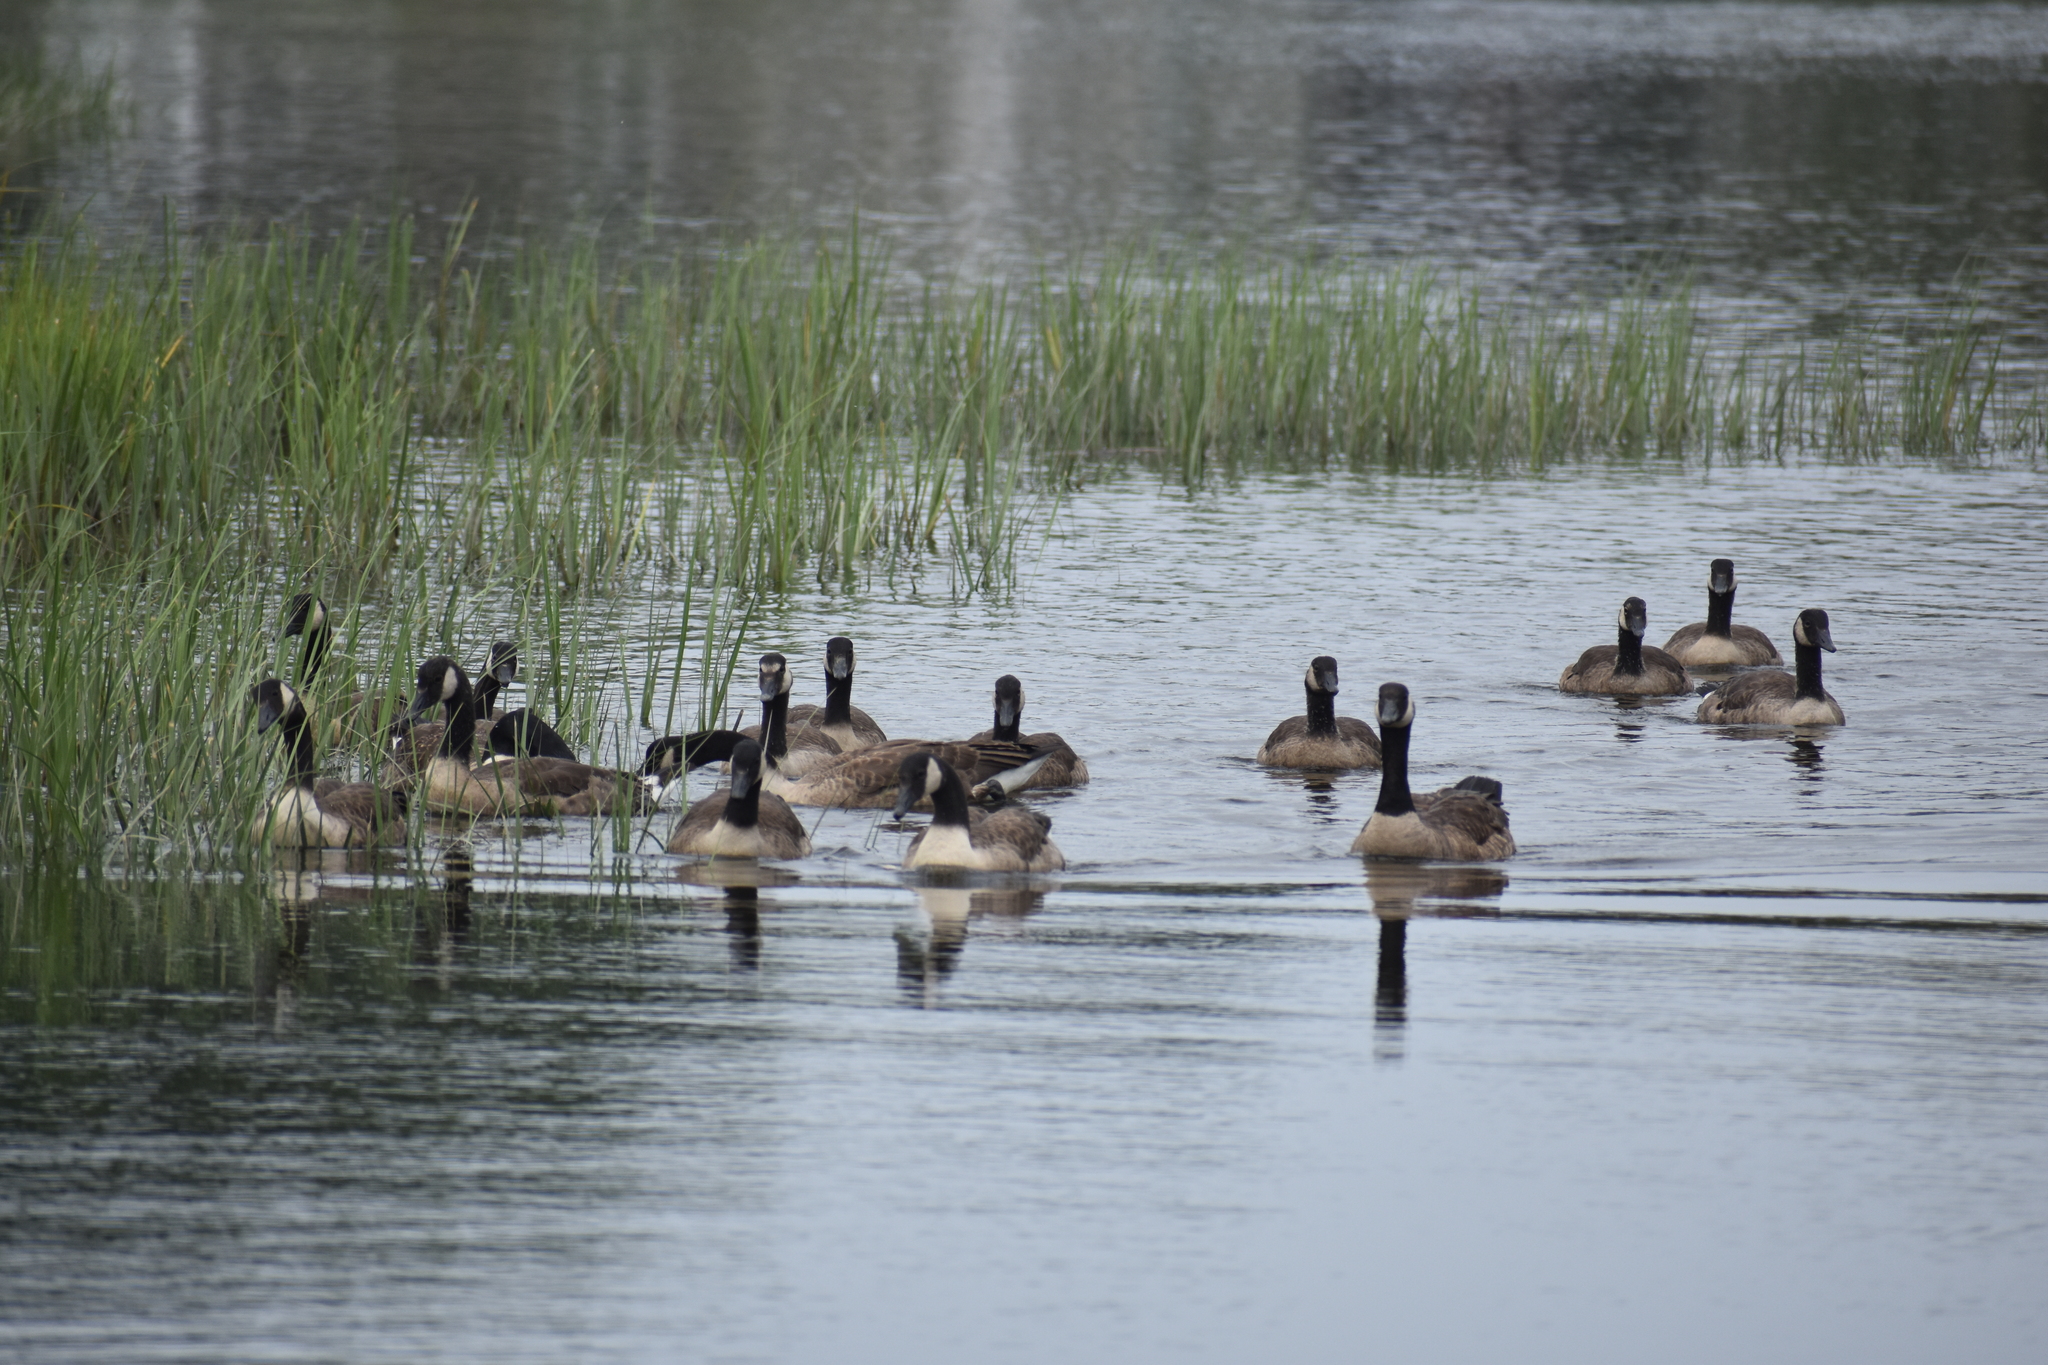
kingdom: Animalia
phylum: Chordata
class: Aves
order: Anseriformes
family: Anatidae
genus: Branta
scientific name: Branta canadensis
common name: Canada goose
